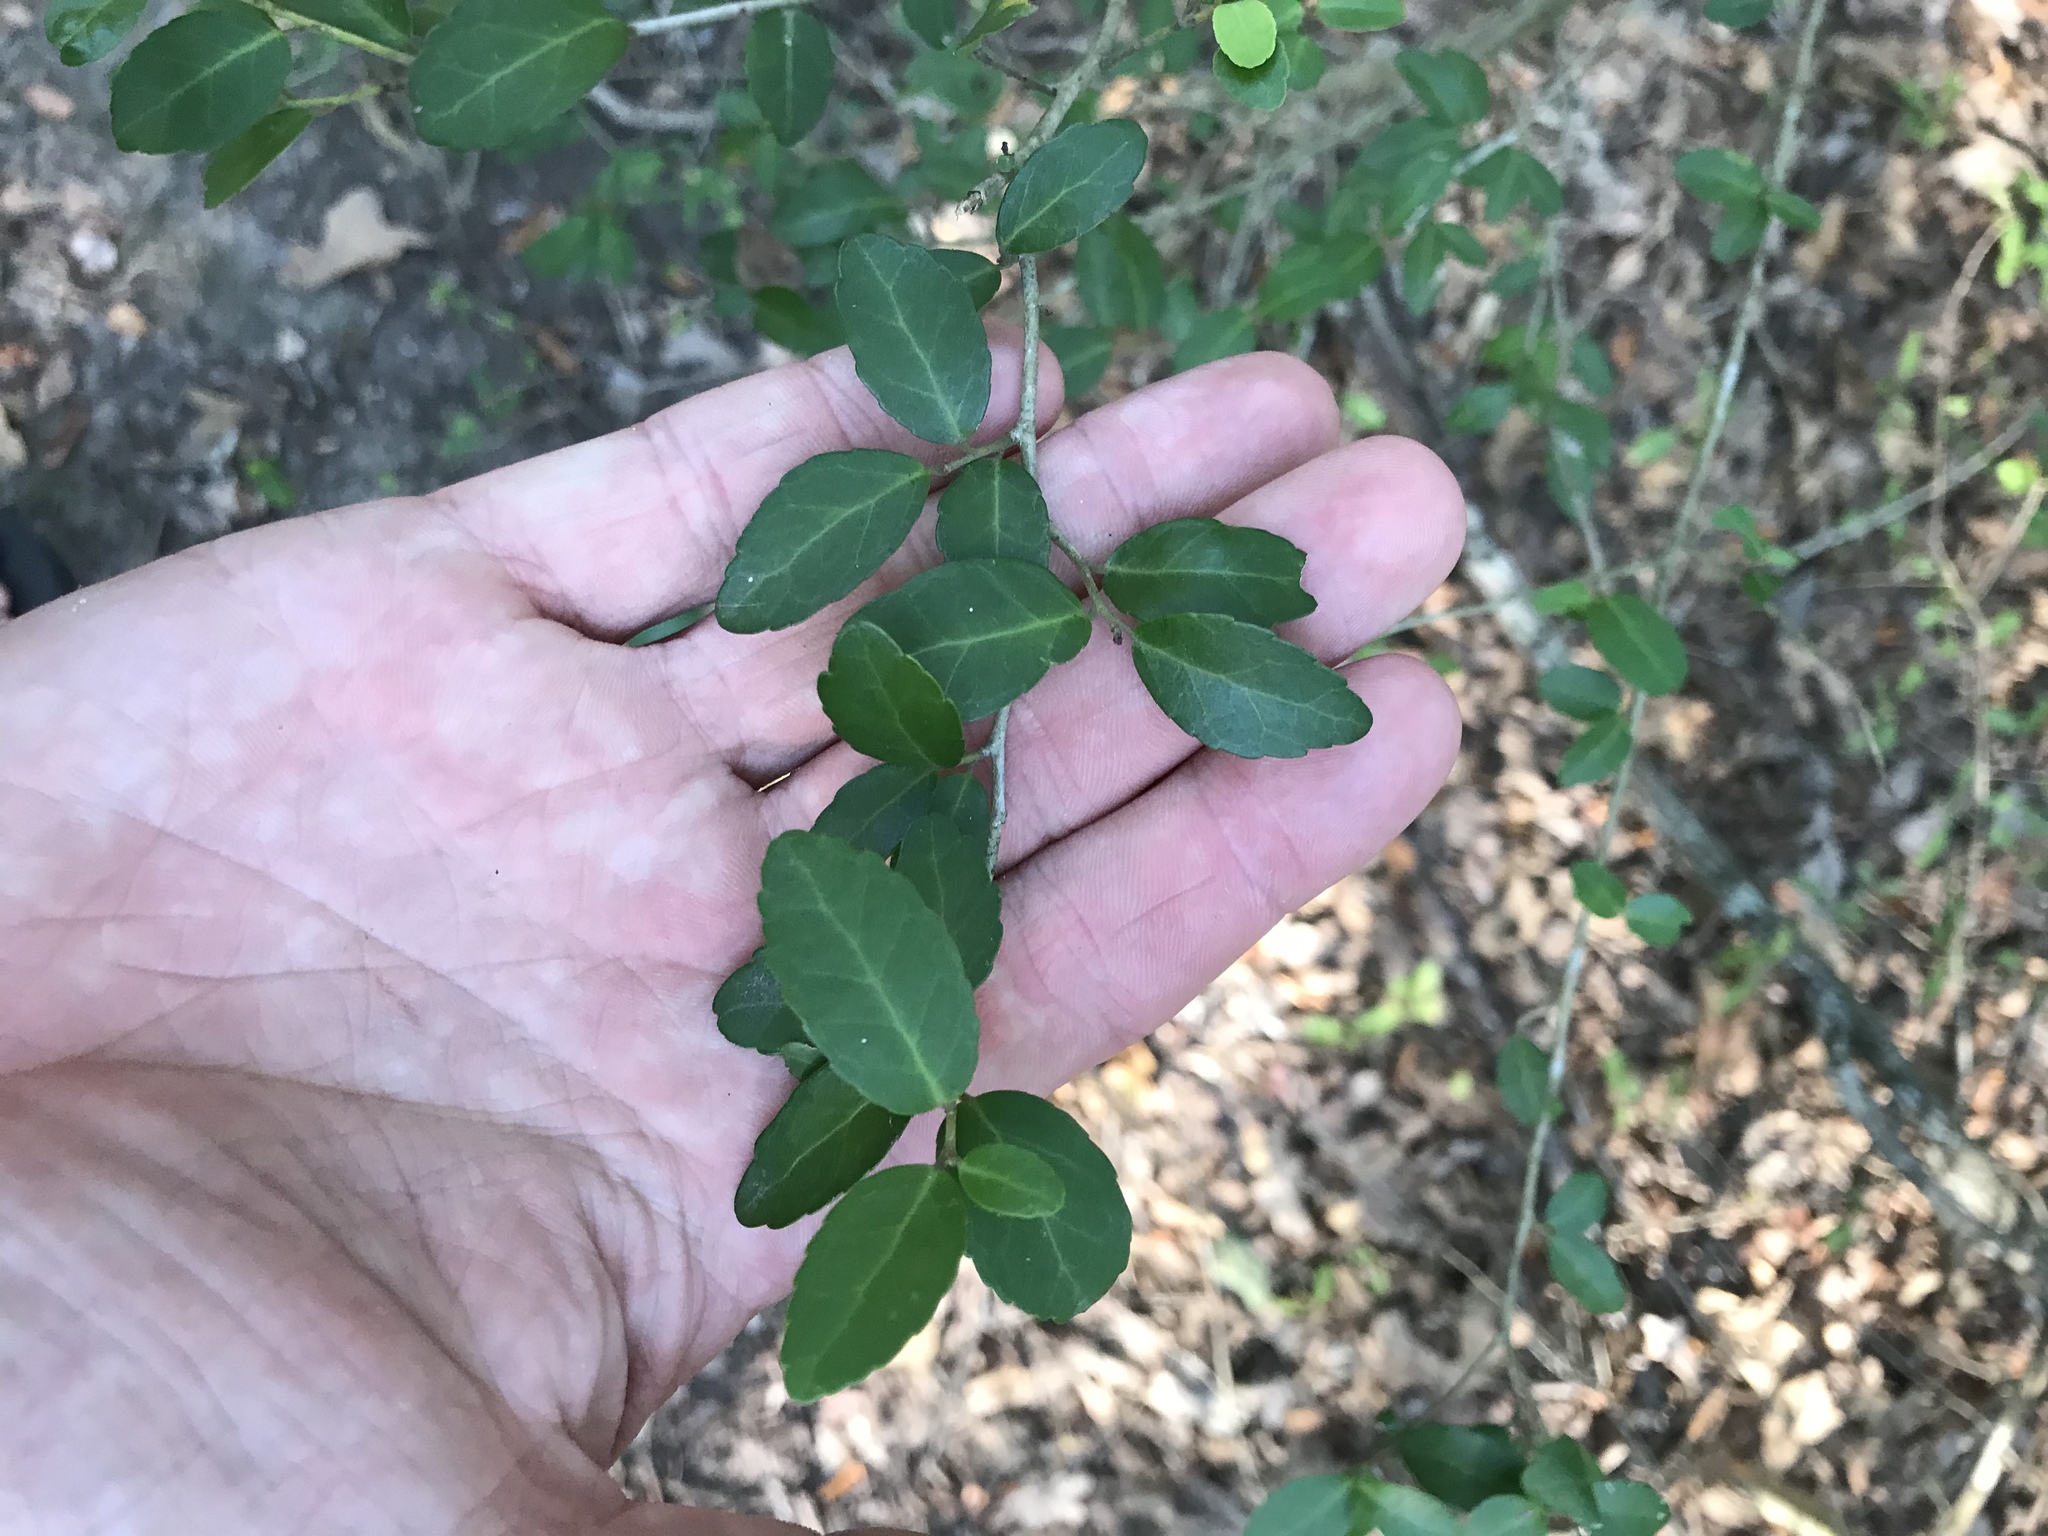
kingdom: Plantae
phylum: Tracheophyta
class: Magnoliopsida
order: Aquifoliales
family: Aquifoliaceae
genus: Ilex
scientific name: Ilex vomitoria
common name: Yaupon holly
